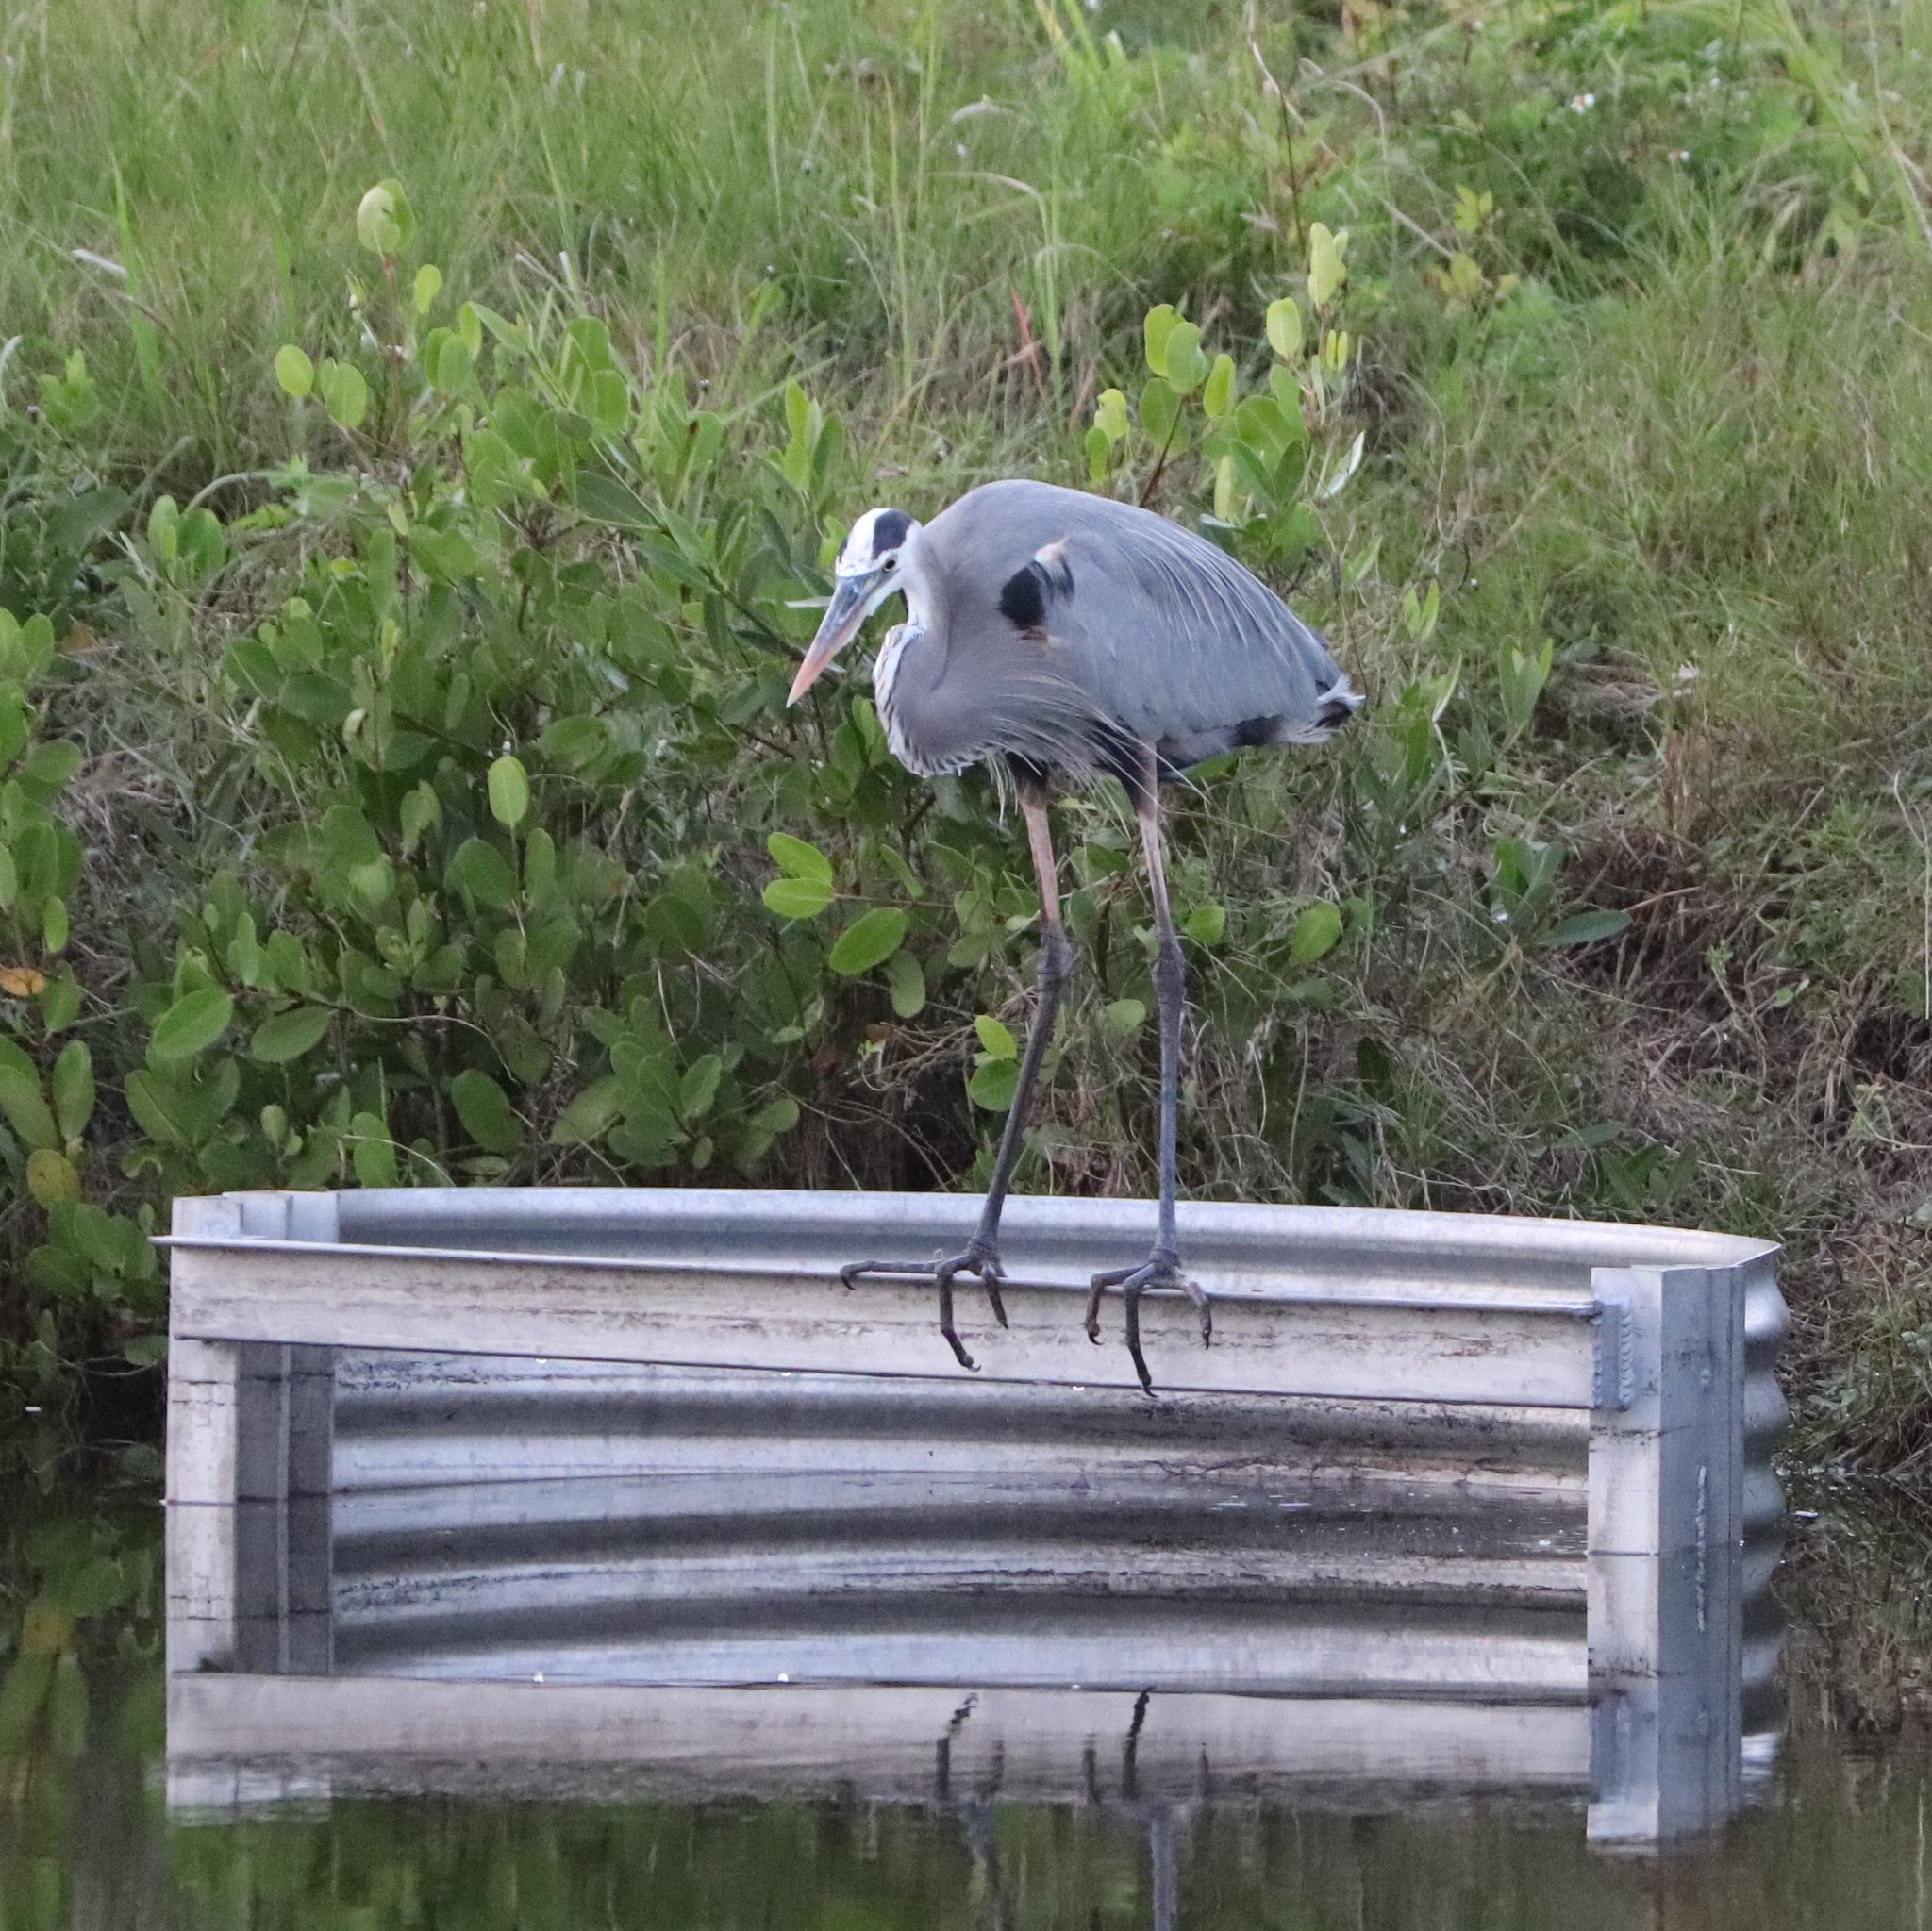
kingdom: Animalia
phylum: Chordata
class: Aves
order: Pelecaniformes
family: Ardeidae
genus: Ardea
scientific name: Ardea herodias
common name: Great blue heron
